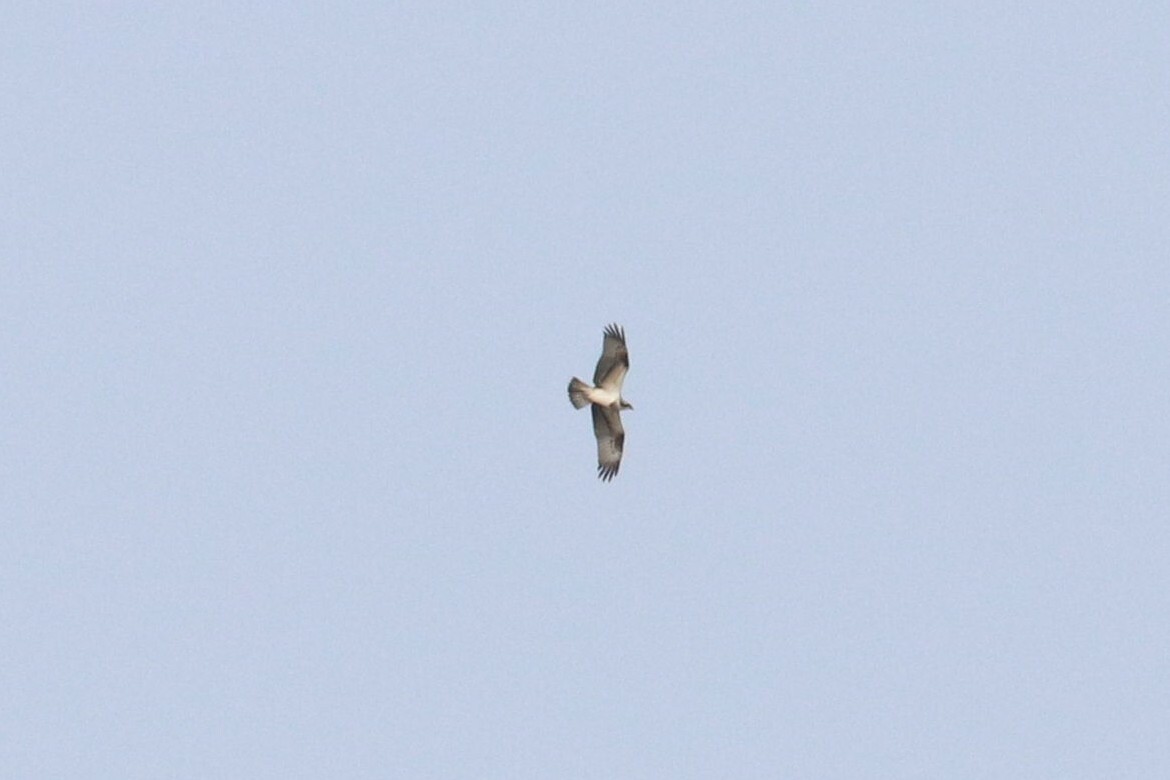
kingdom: Animalia
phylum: Chordata
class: Aves
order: Accipitriformes
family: Pandionidae
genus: Pandion
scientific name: Pandion haliaetus
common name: Osprey
